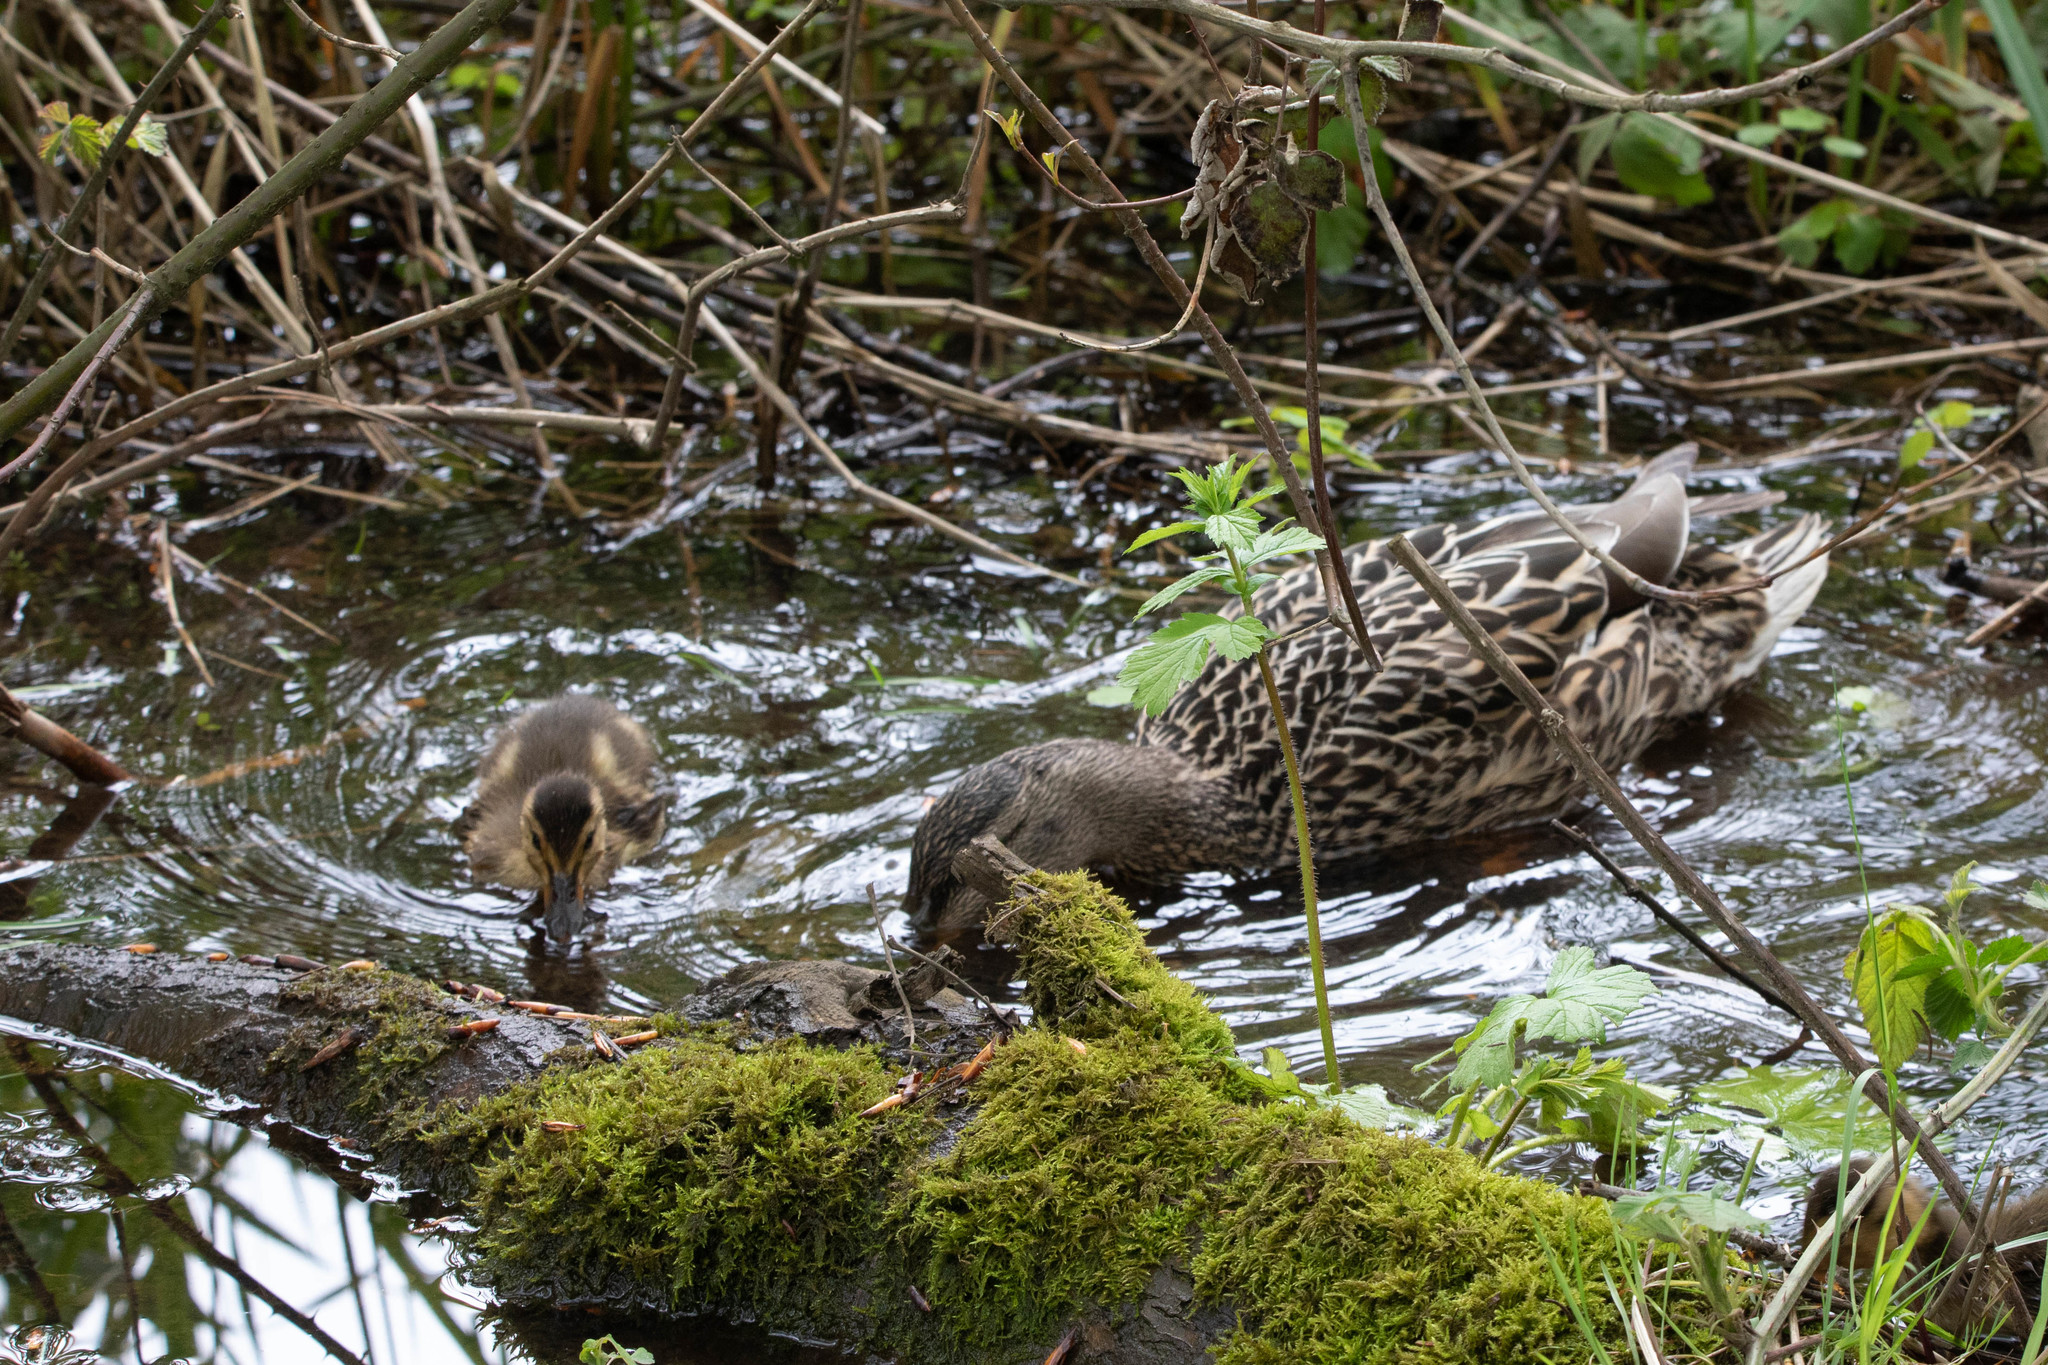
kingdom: Animalia
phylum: Chordata
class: Aves
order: Anseriformes
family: Anatidae
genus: Anas
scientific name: Anas platyrhynchos
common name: Mallard
